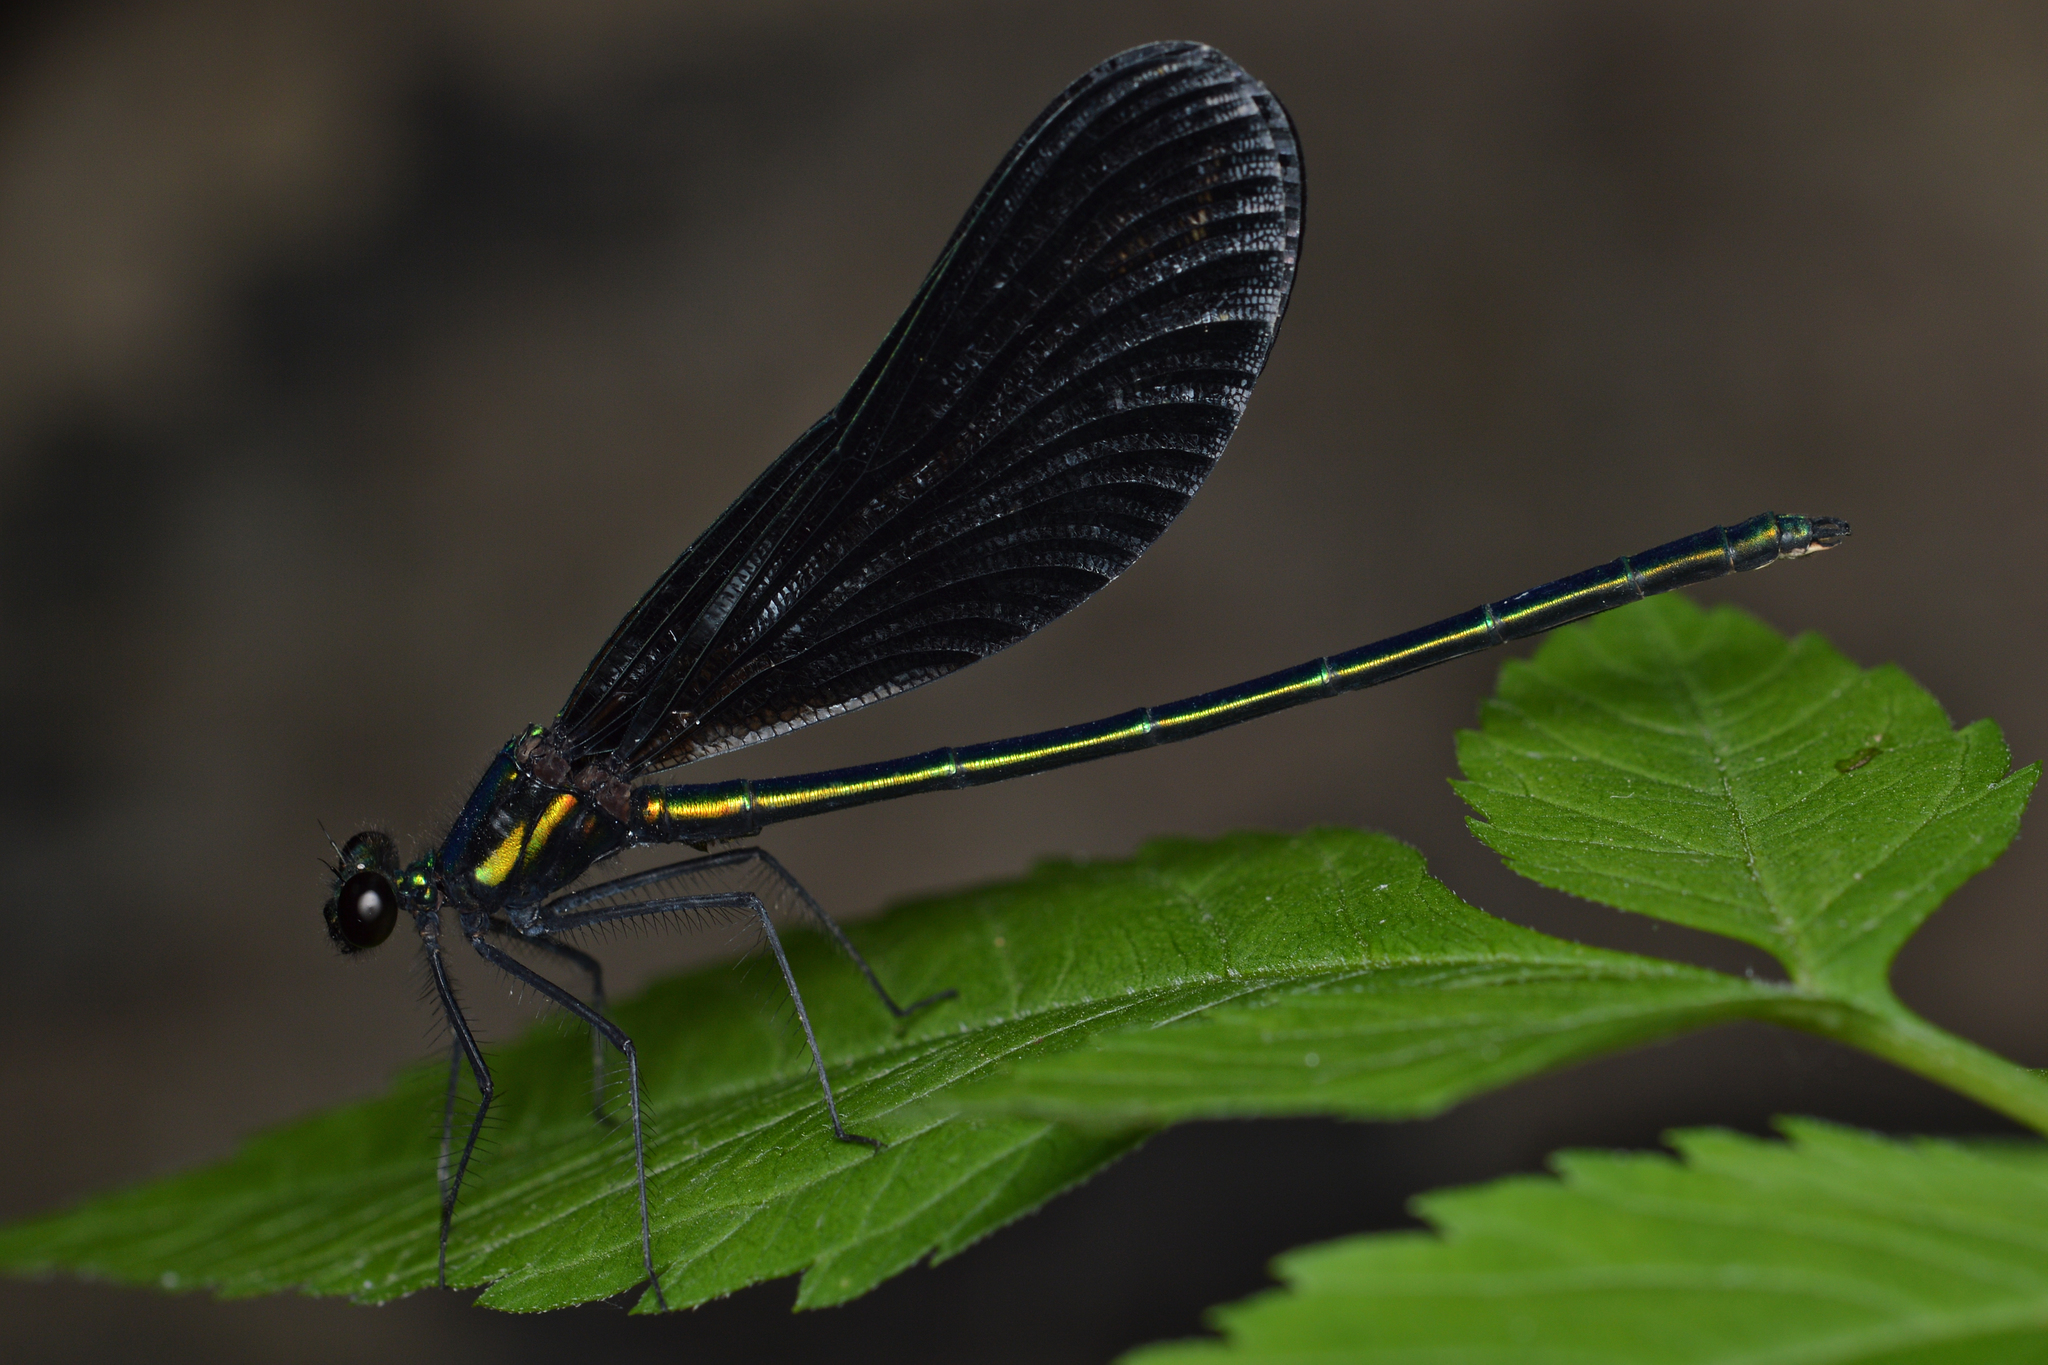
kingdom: Animalia
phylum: Arthropoda
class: Insecta
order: Odonata
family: Calopterygidae
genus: Calopteryx
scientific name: Calopteryx maculata
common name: Ebony jewelwing
